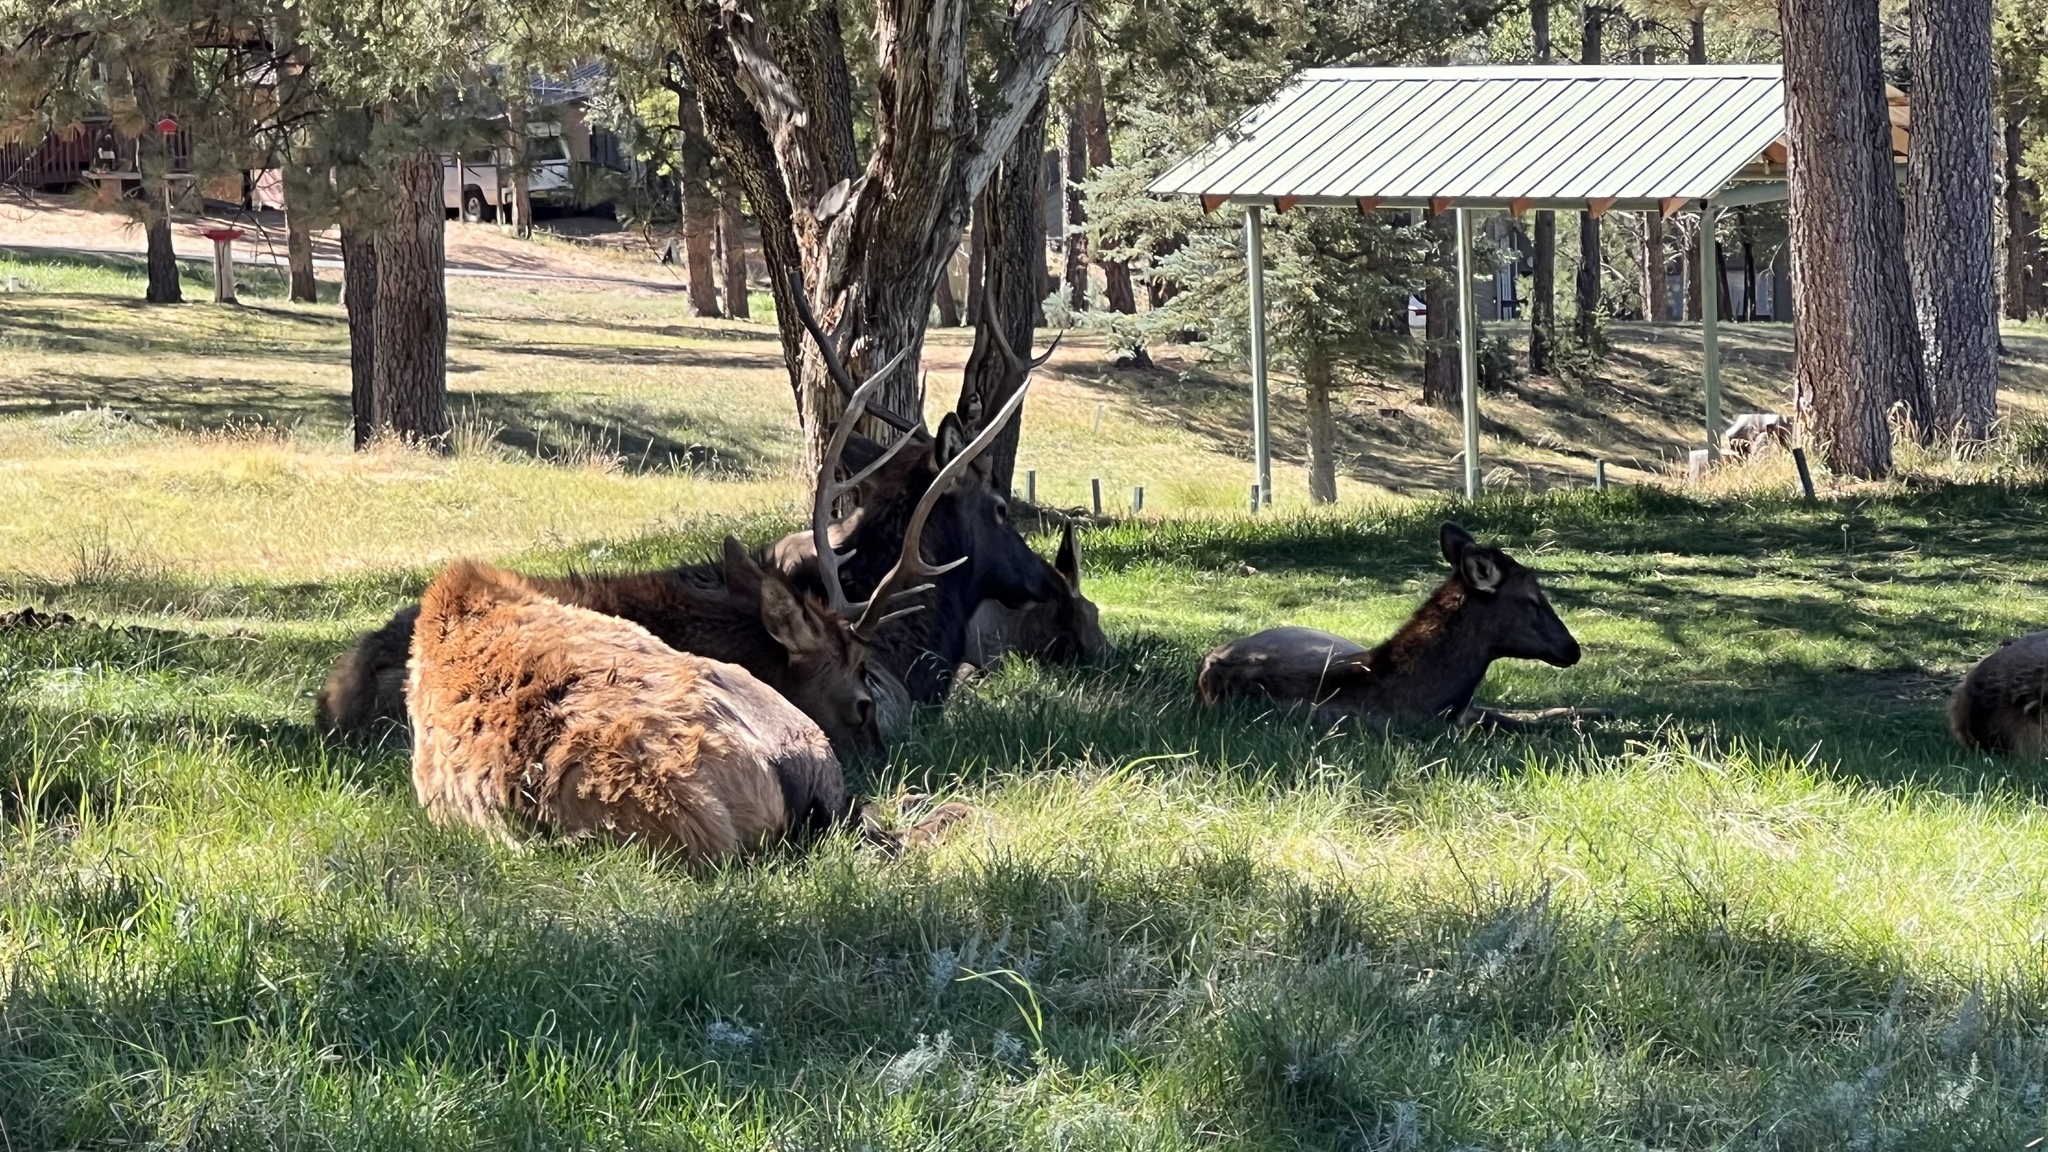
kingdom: Animalia
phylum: Chordata
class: Mammalia
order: Artiodactyla
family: Cervidae
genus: Cervus
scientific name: Cervus elaphus
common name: Red deer
